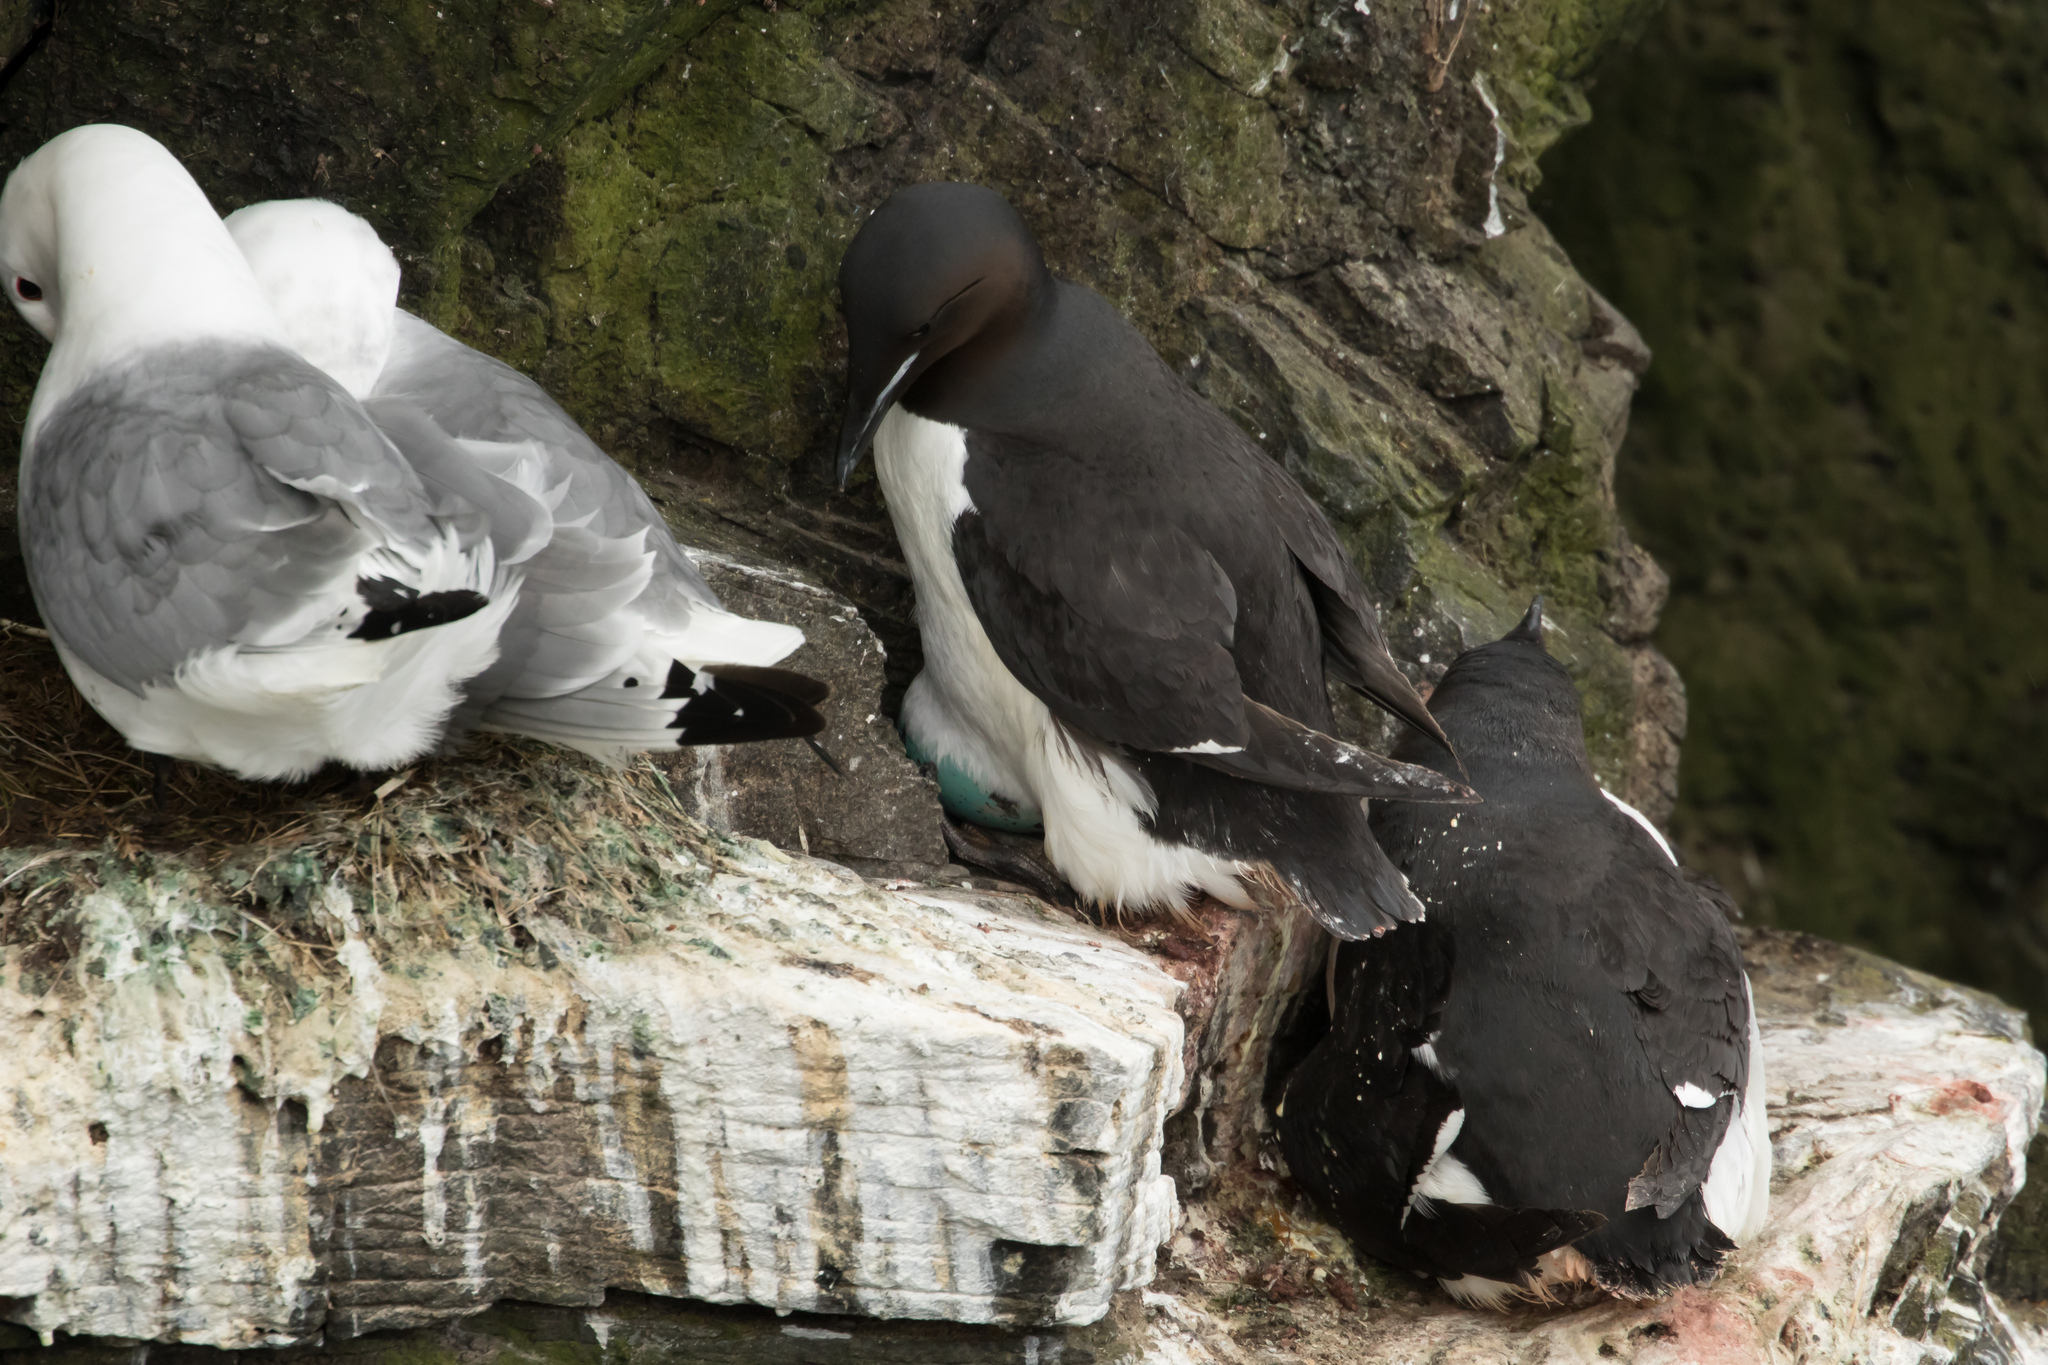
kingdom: Animalia
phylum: Chordata
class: Aves
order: Charadriiformes
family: Alcidae
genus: Uria
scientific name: Uria lomvia
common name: Thick-billed murre
